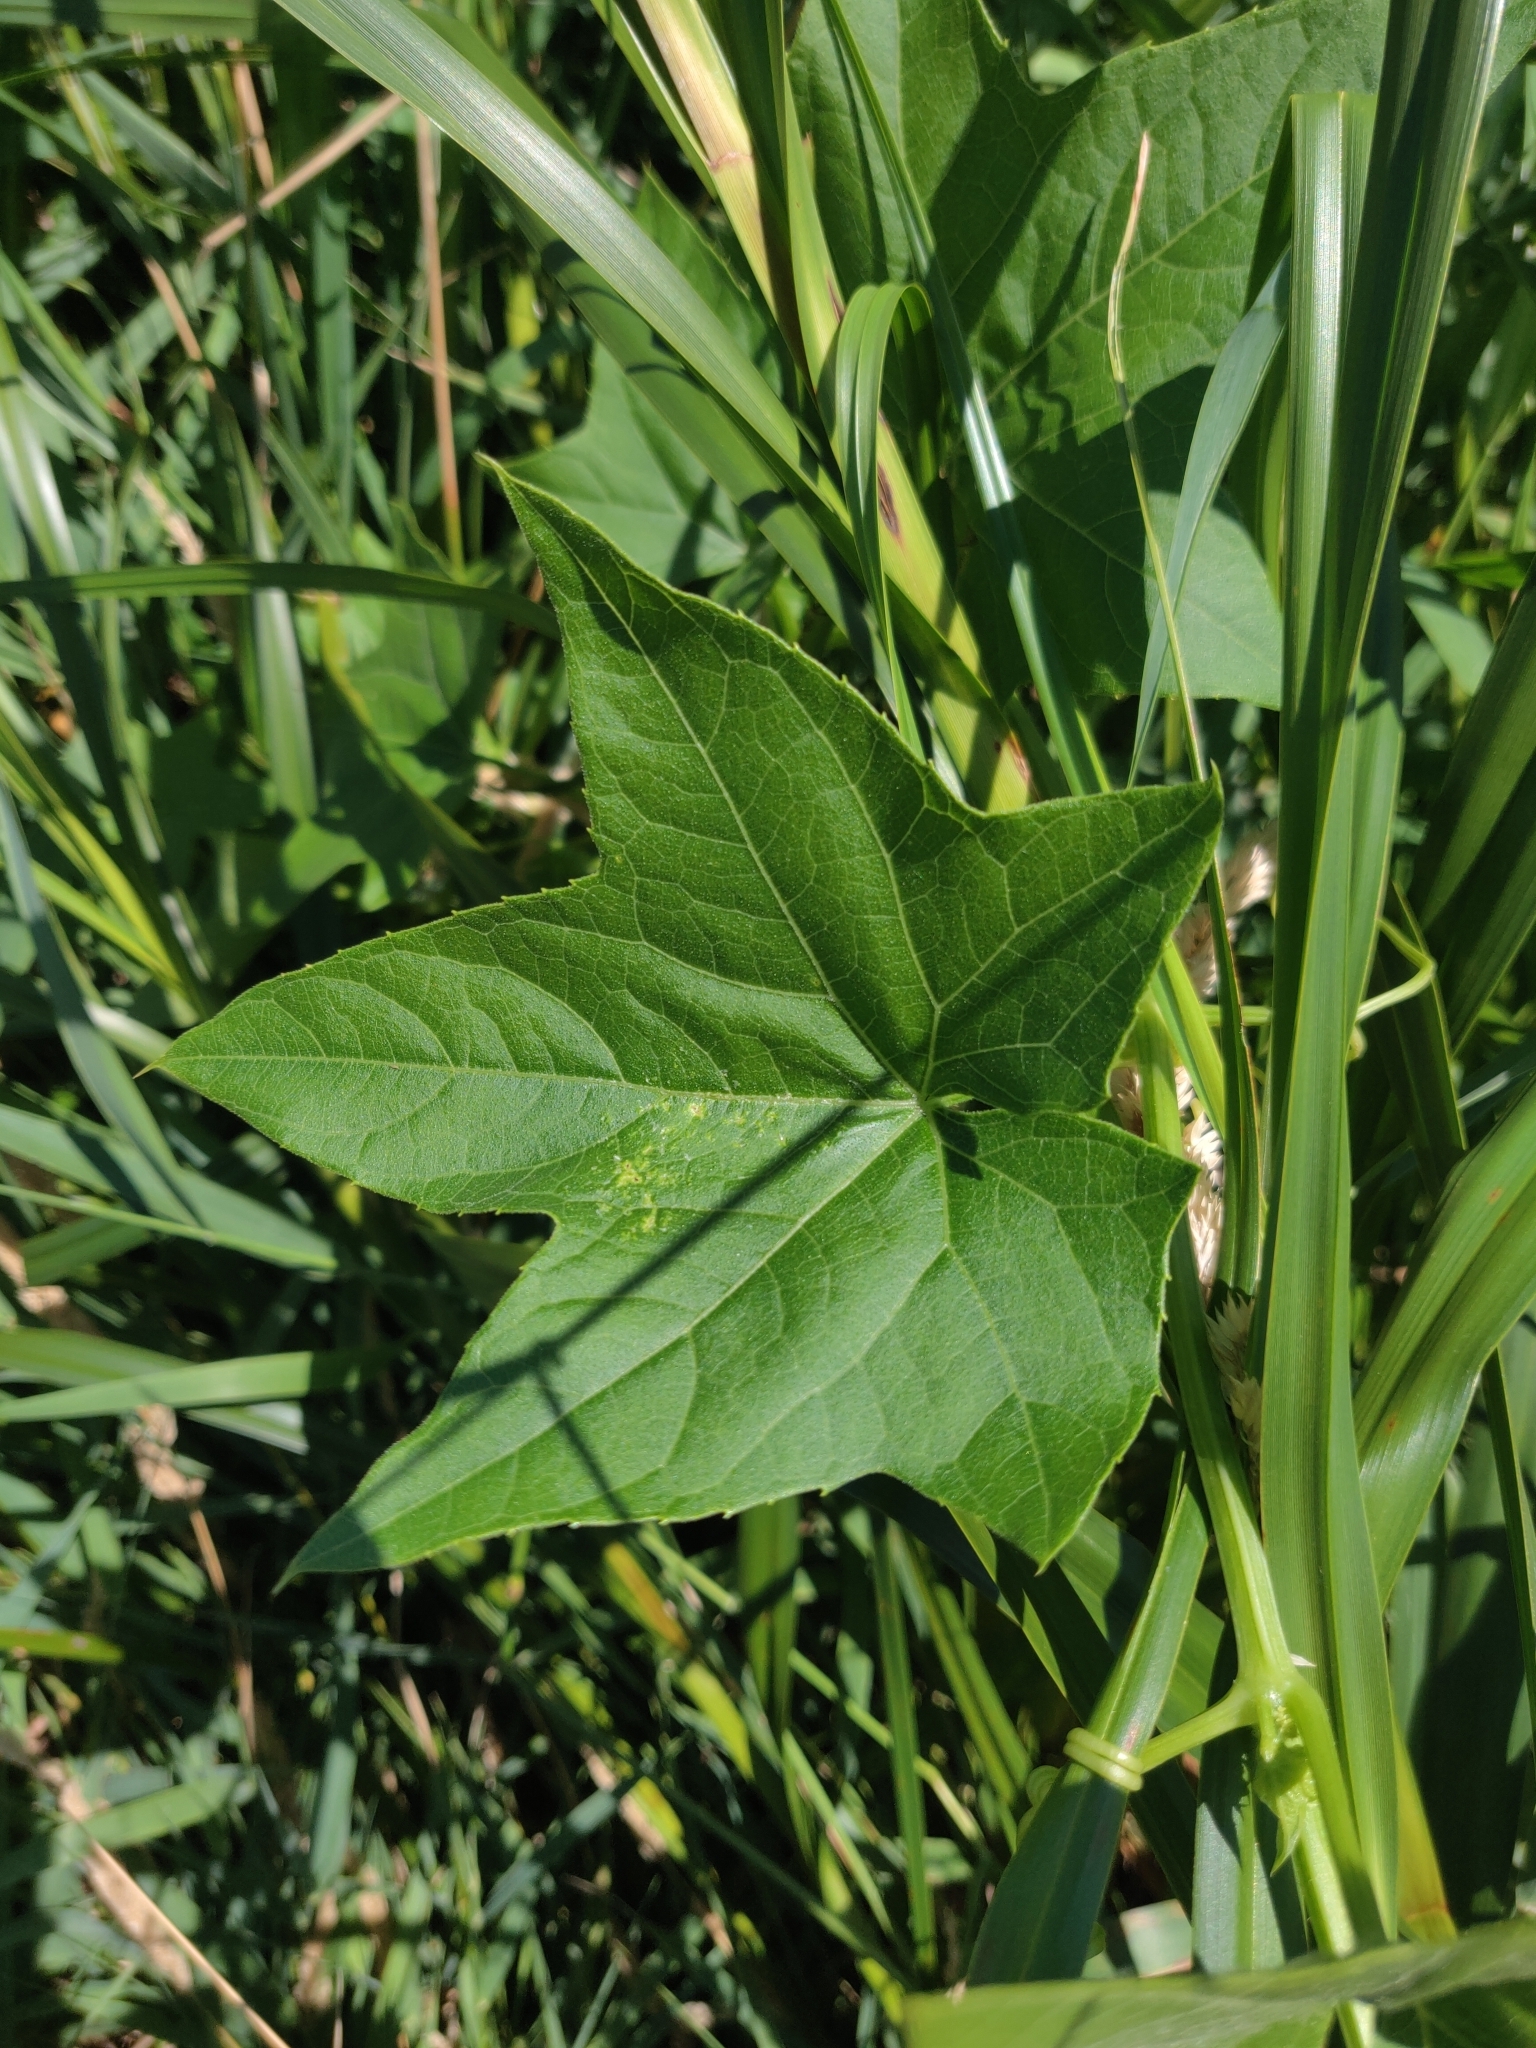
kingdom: Plantae
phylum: Tracheophyta
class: Magnoliopsida
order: Cucurbitales
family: Cucurbitaceae
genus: Echinocystis
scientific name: Echinocystis lobata
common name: Wild cucumber
